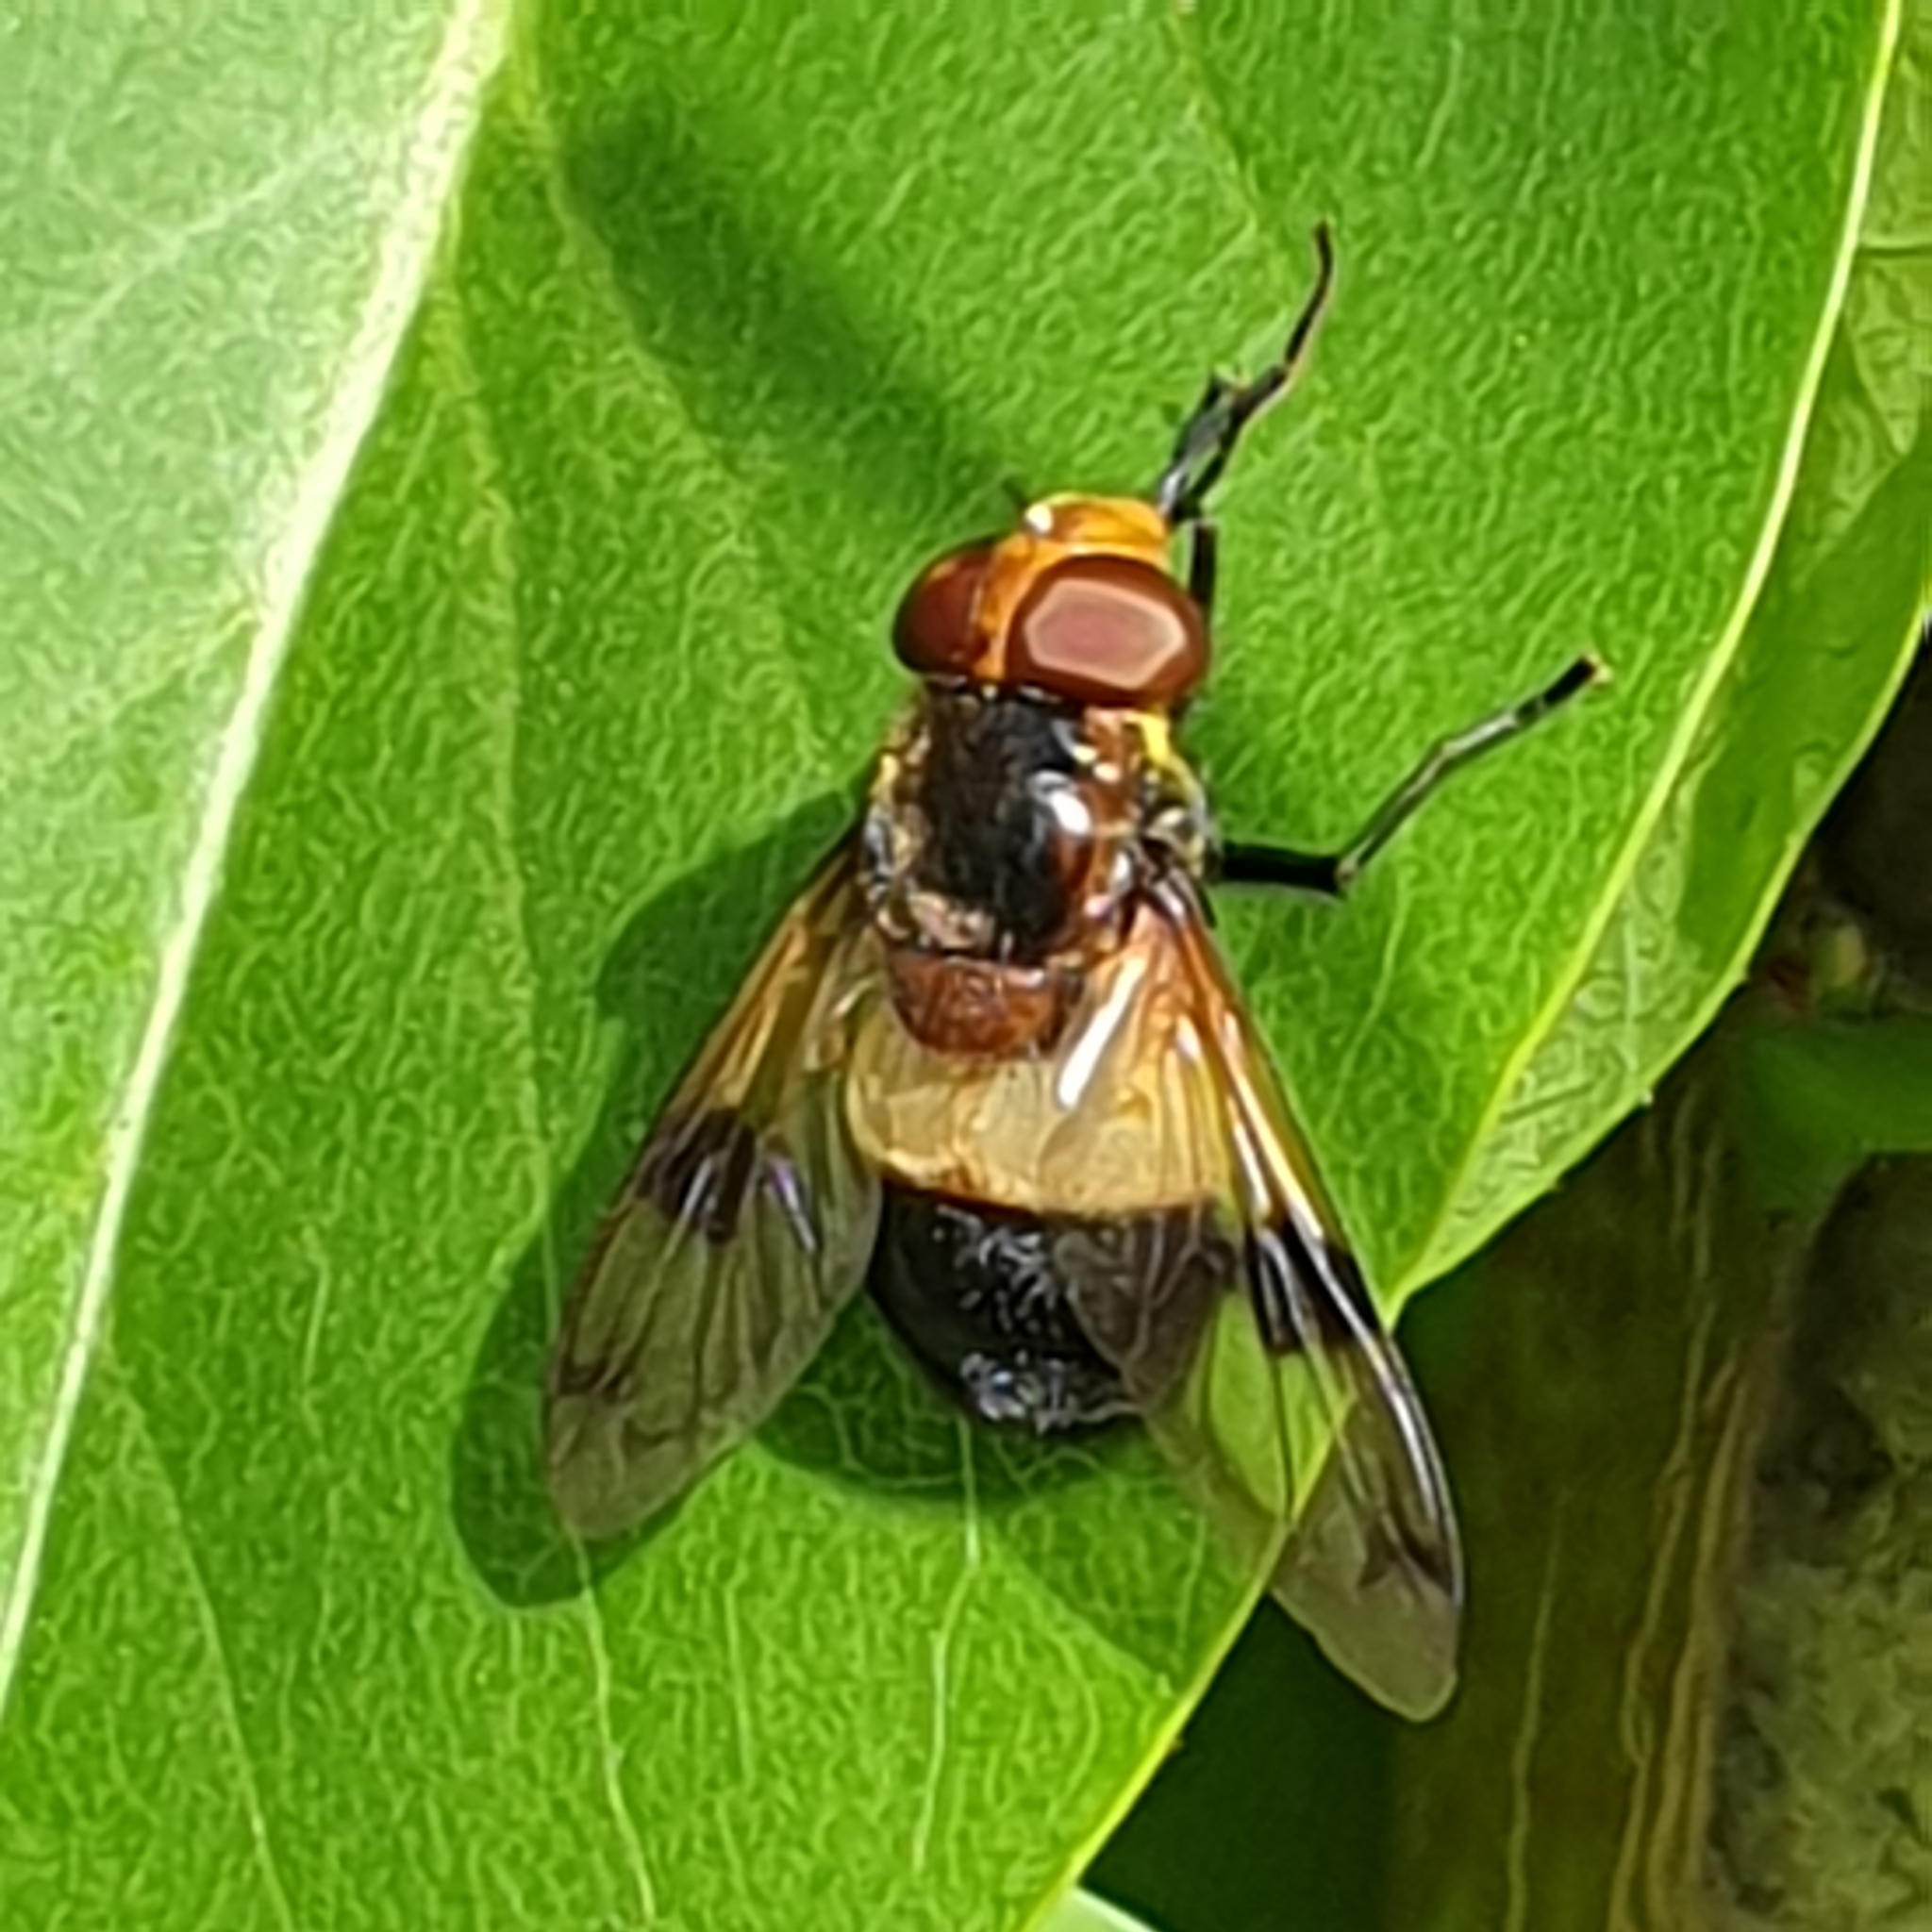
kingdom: Animalia
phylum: Arthropoda
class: Insecta
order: Diptera
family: Syrphidae
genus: Volucella
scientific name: Volucella pellucens
